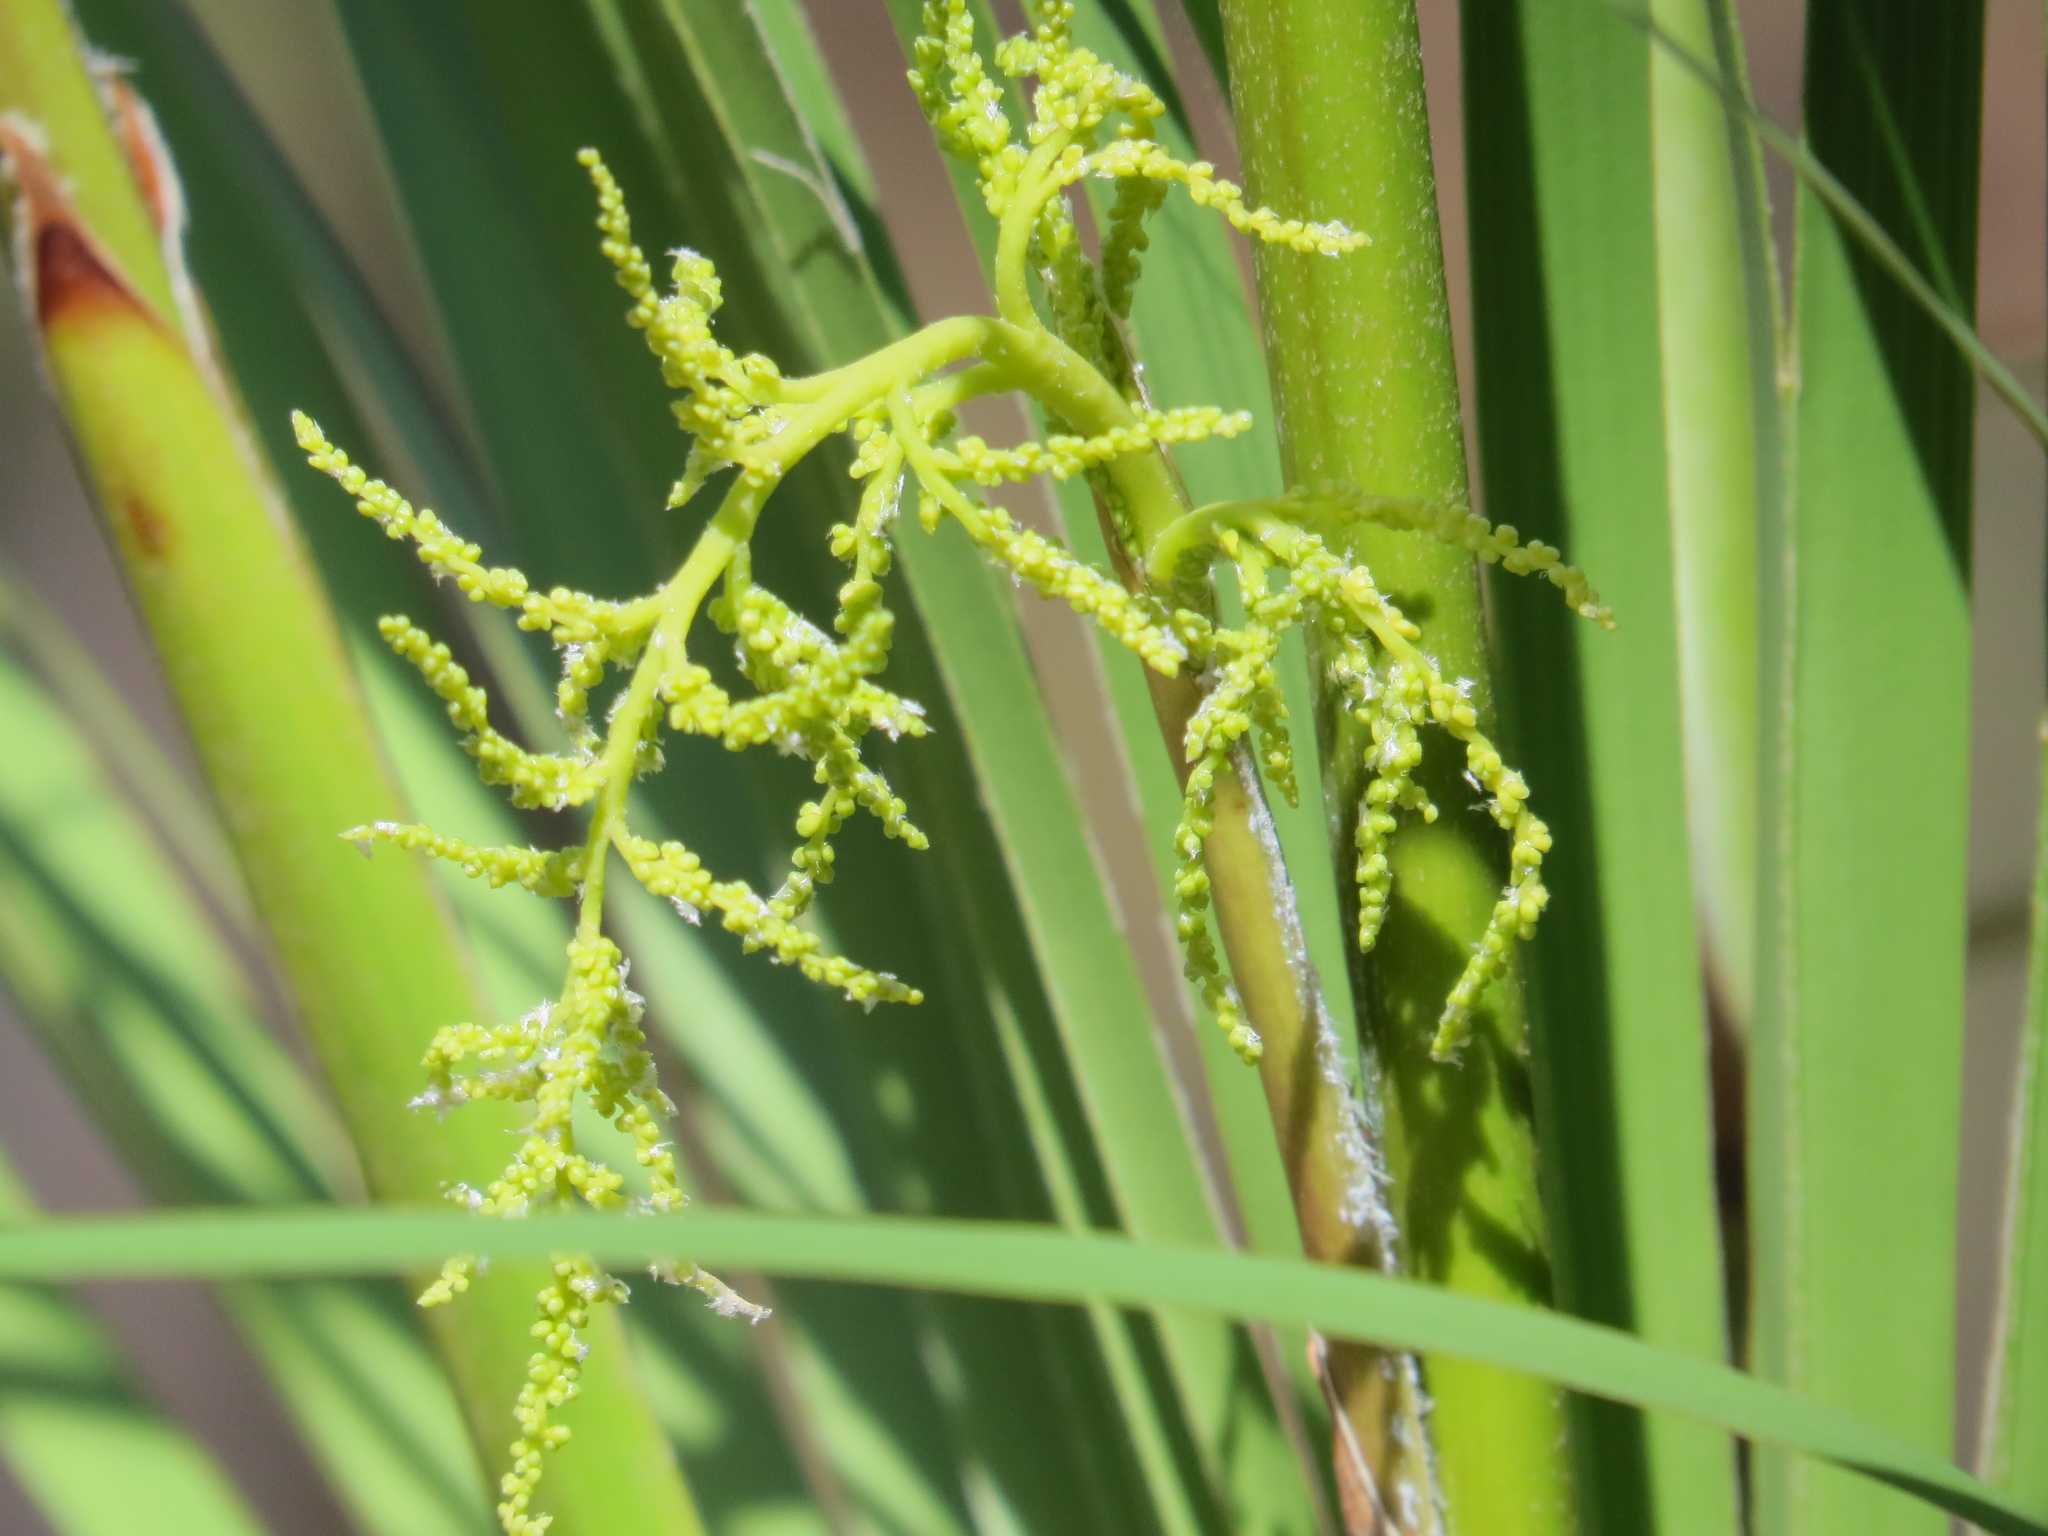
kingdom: Plantae
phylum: Tracheophyta
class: Liliopsida
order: Arecales
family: Arecaceae
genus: Livistona
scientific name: Livistona humilis
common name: Cabbage palm
